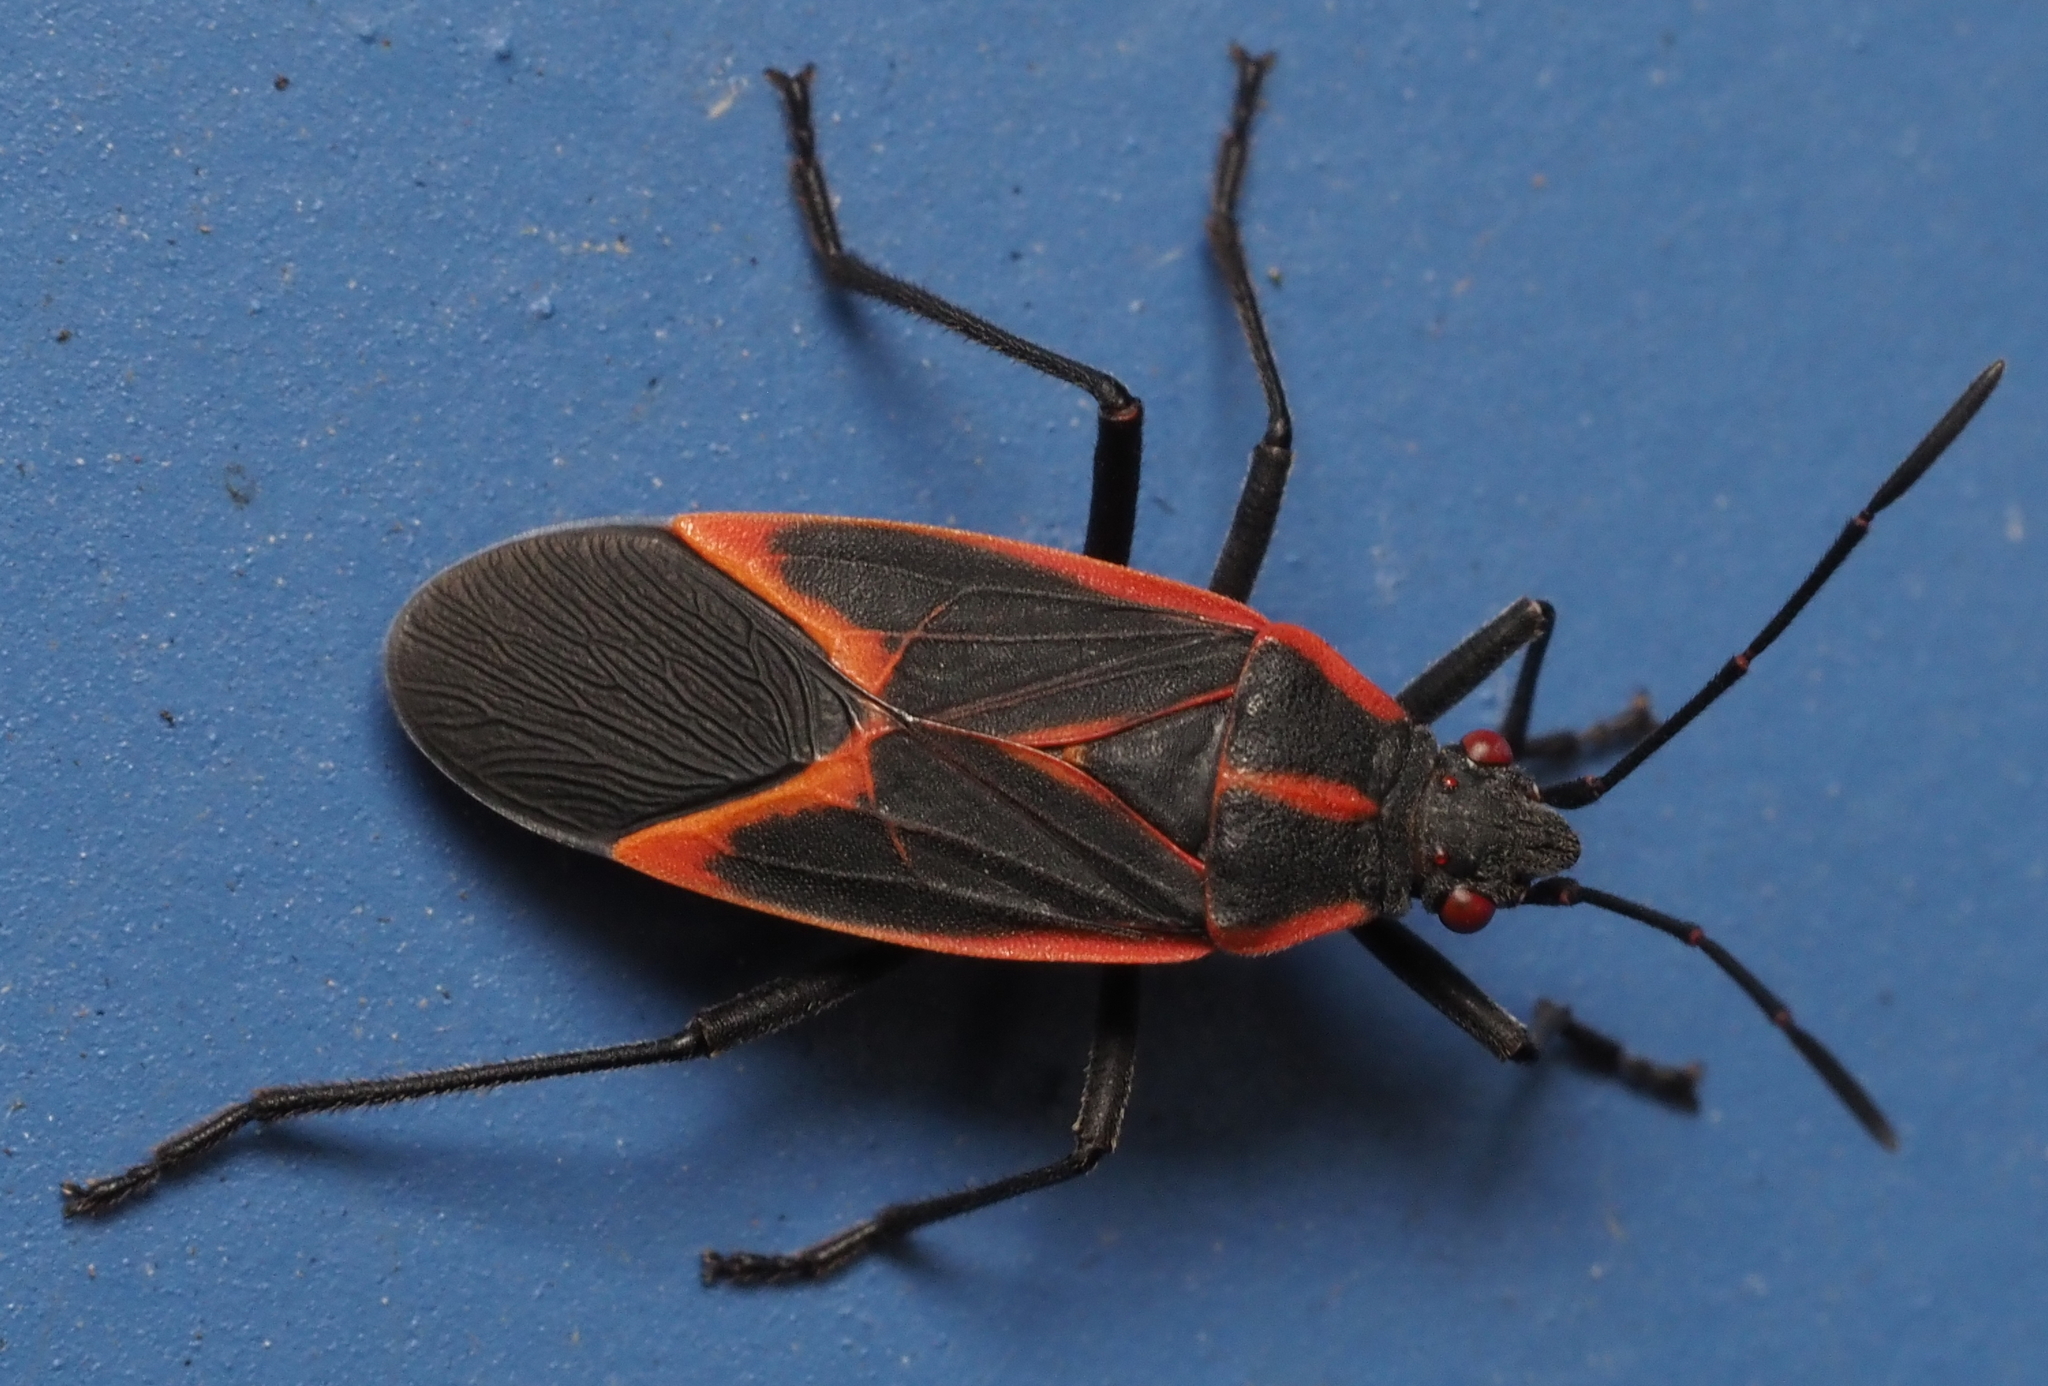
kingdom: Animalia
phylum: Arthropoda
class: Insecta
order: Hemiptera
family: Rhopalidae
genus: Boisea
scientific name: Boisea trivittata
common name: Boxelder bug
